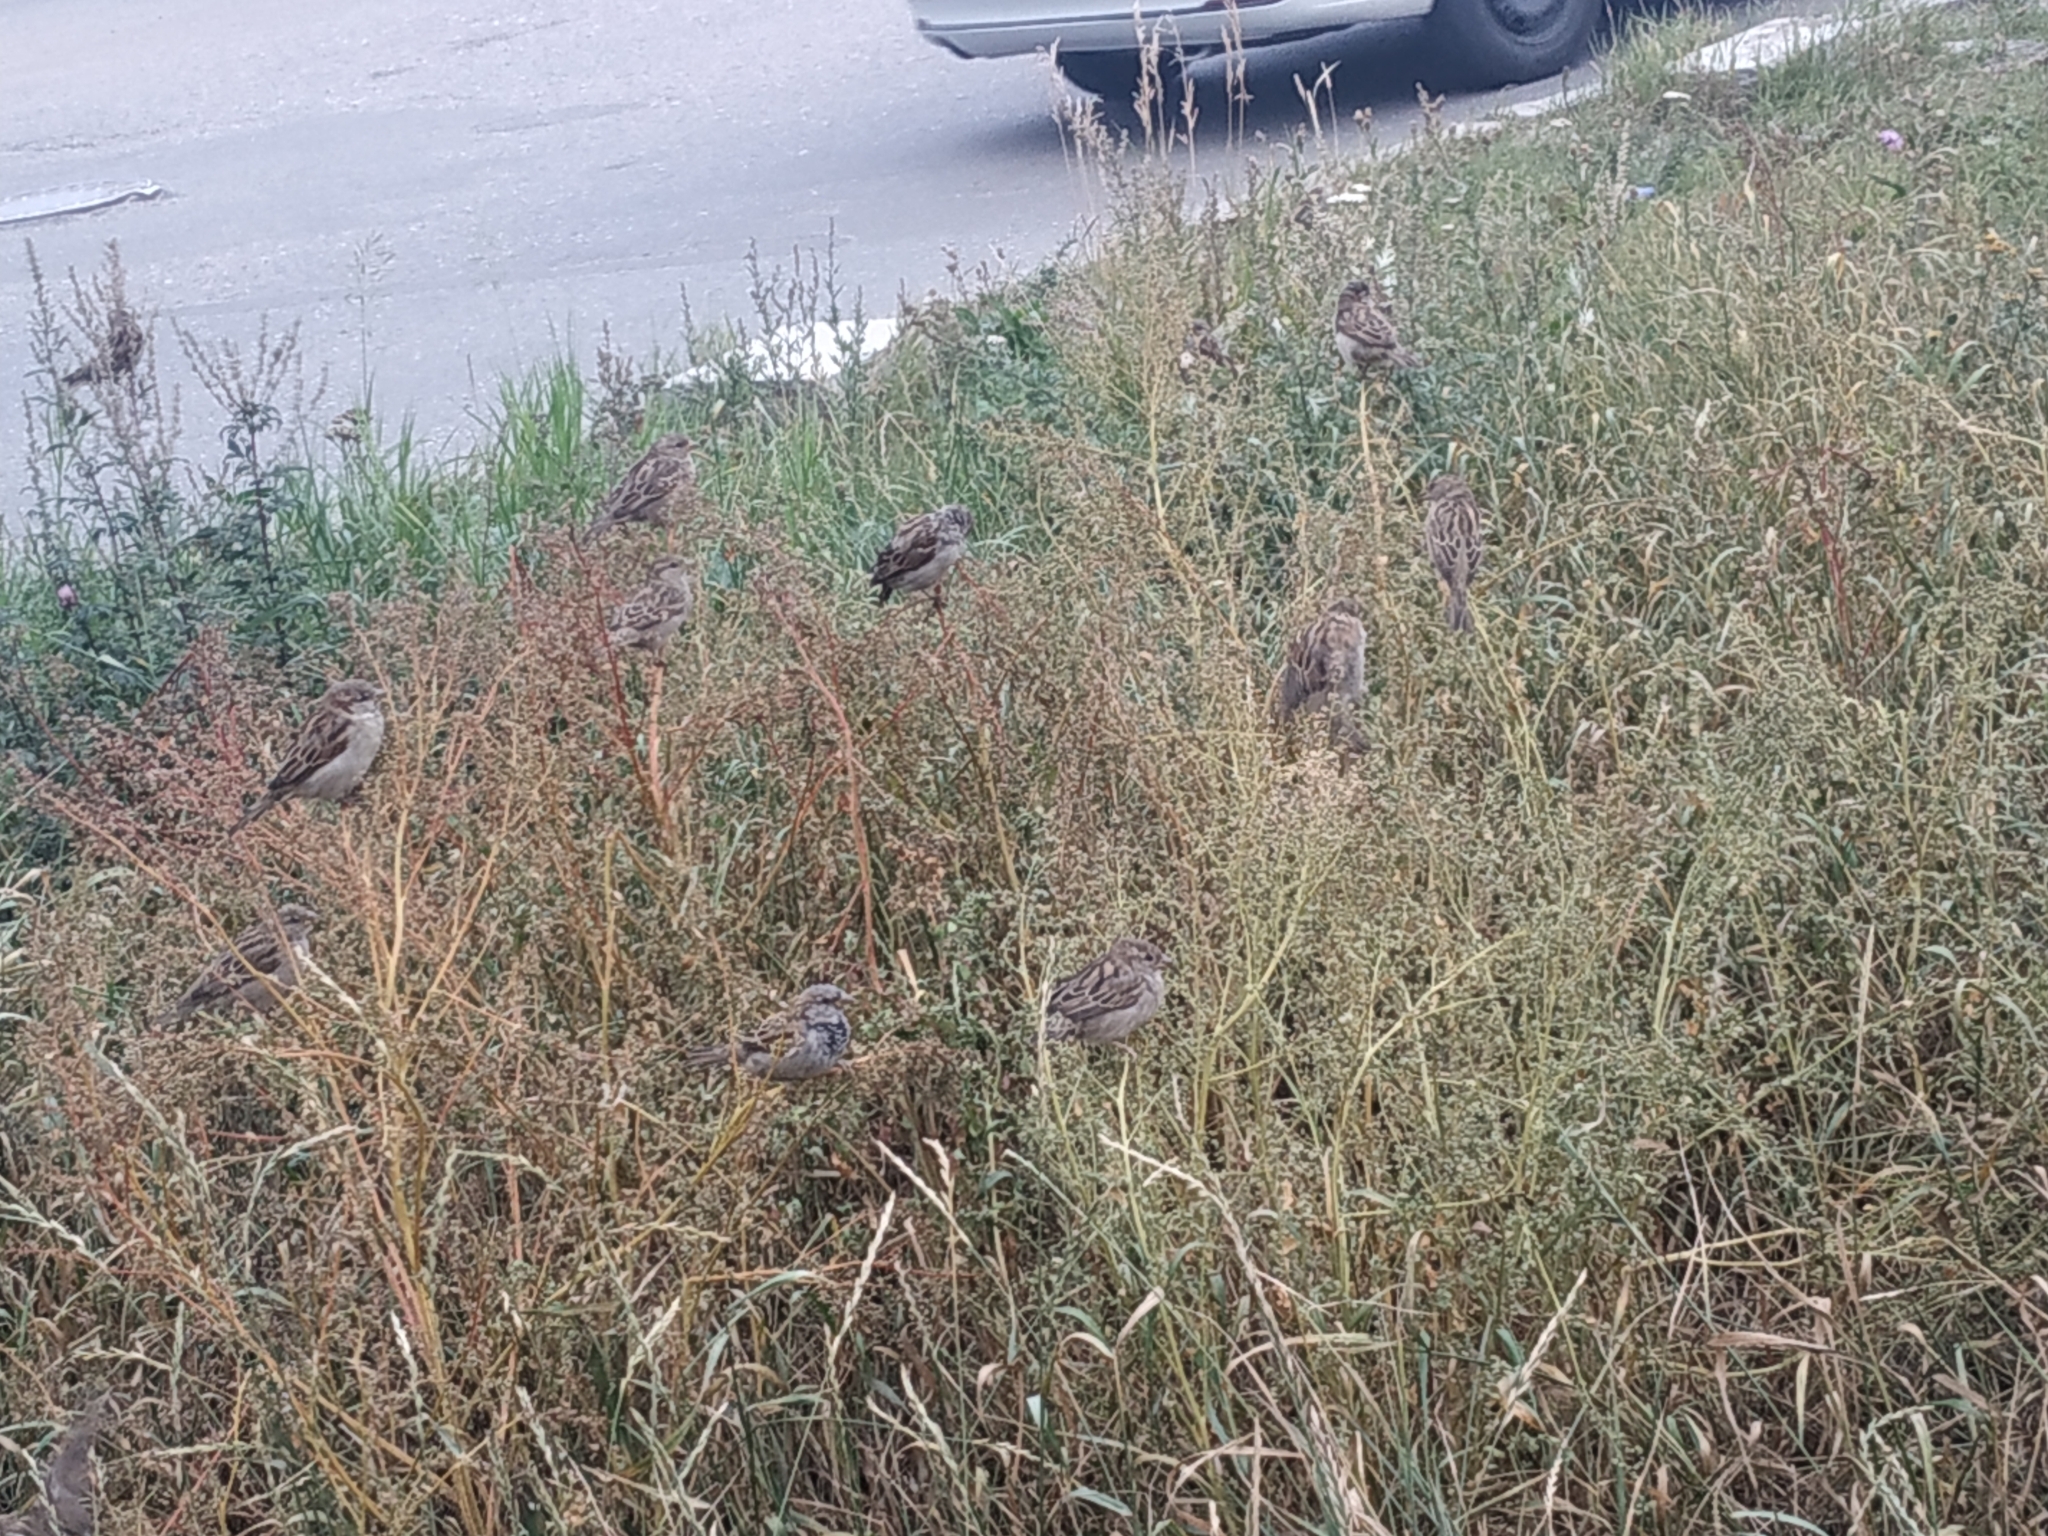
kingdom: Animalia
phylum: Chordata
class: Aves
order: Passeriformes
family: Passeridae
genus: Passer
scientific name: Passer domesticus
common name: House sparrow
